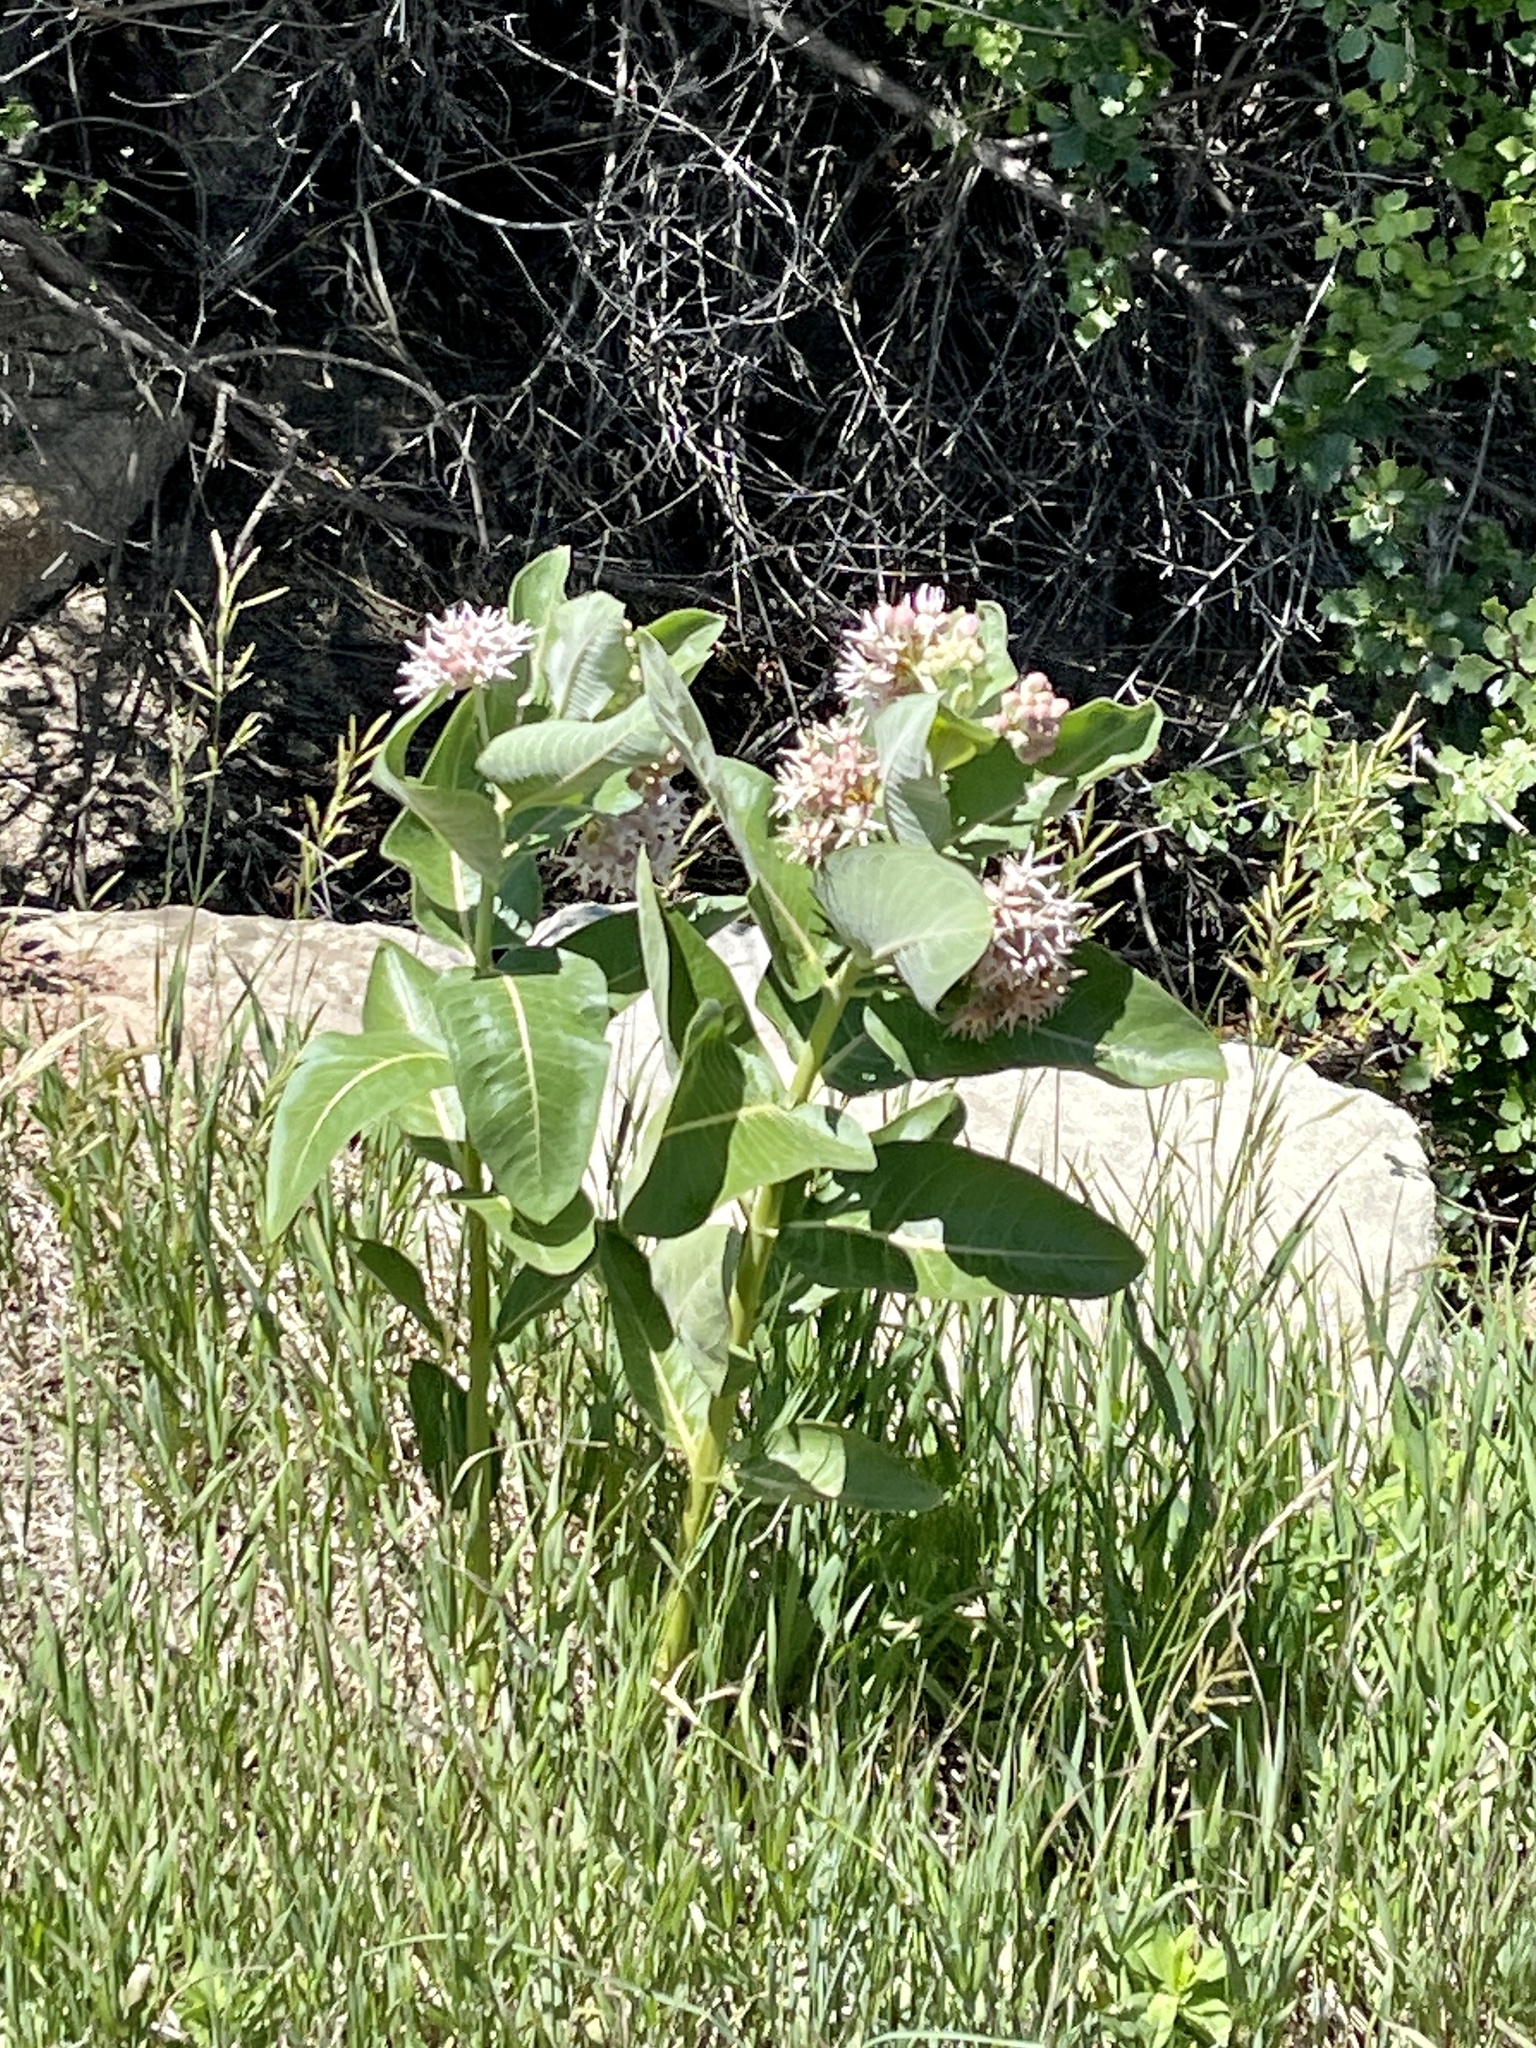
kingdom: Plantae
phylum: Tracheophyta
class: Magnoliopsida
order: Gentianales
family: Apocynaceae
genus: Asclepias
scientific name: Asclepias speciosa
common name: Showy milkweed
